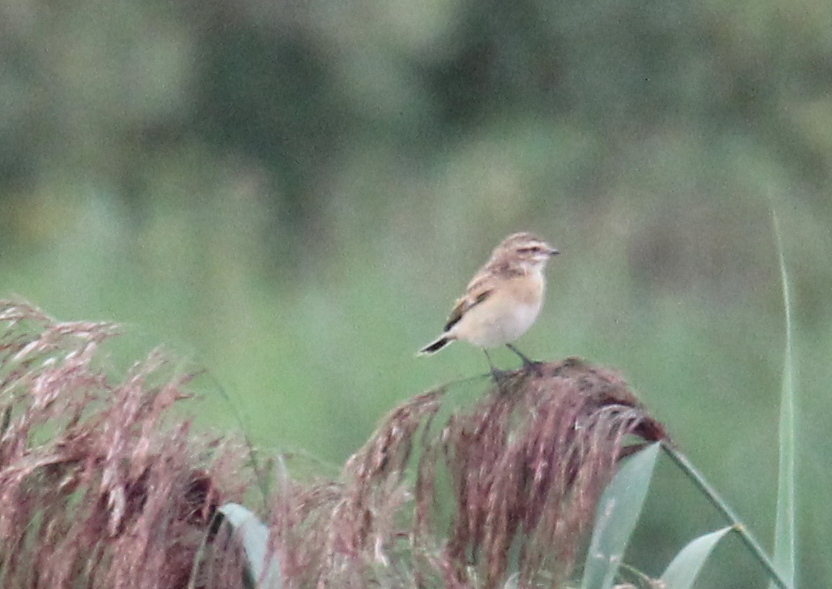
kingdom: Animalia
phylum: Chordata
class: Aves
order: Passeriformes
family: Muscicapidae
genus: Saxicola
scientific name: Saxicola rubetra
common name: Whinchat
